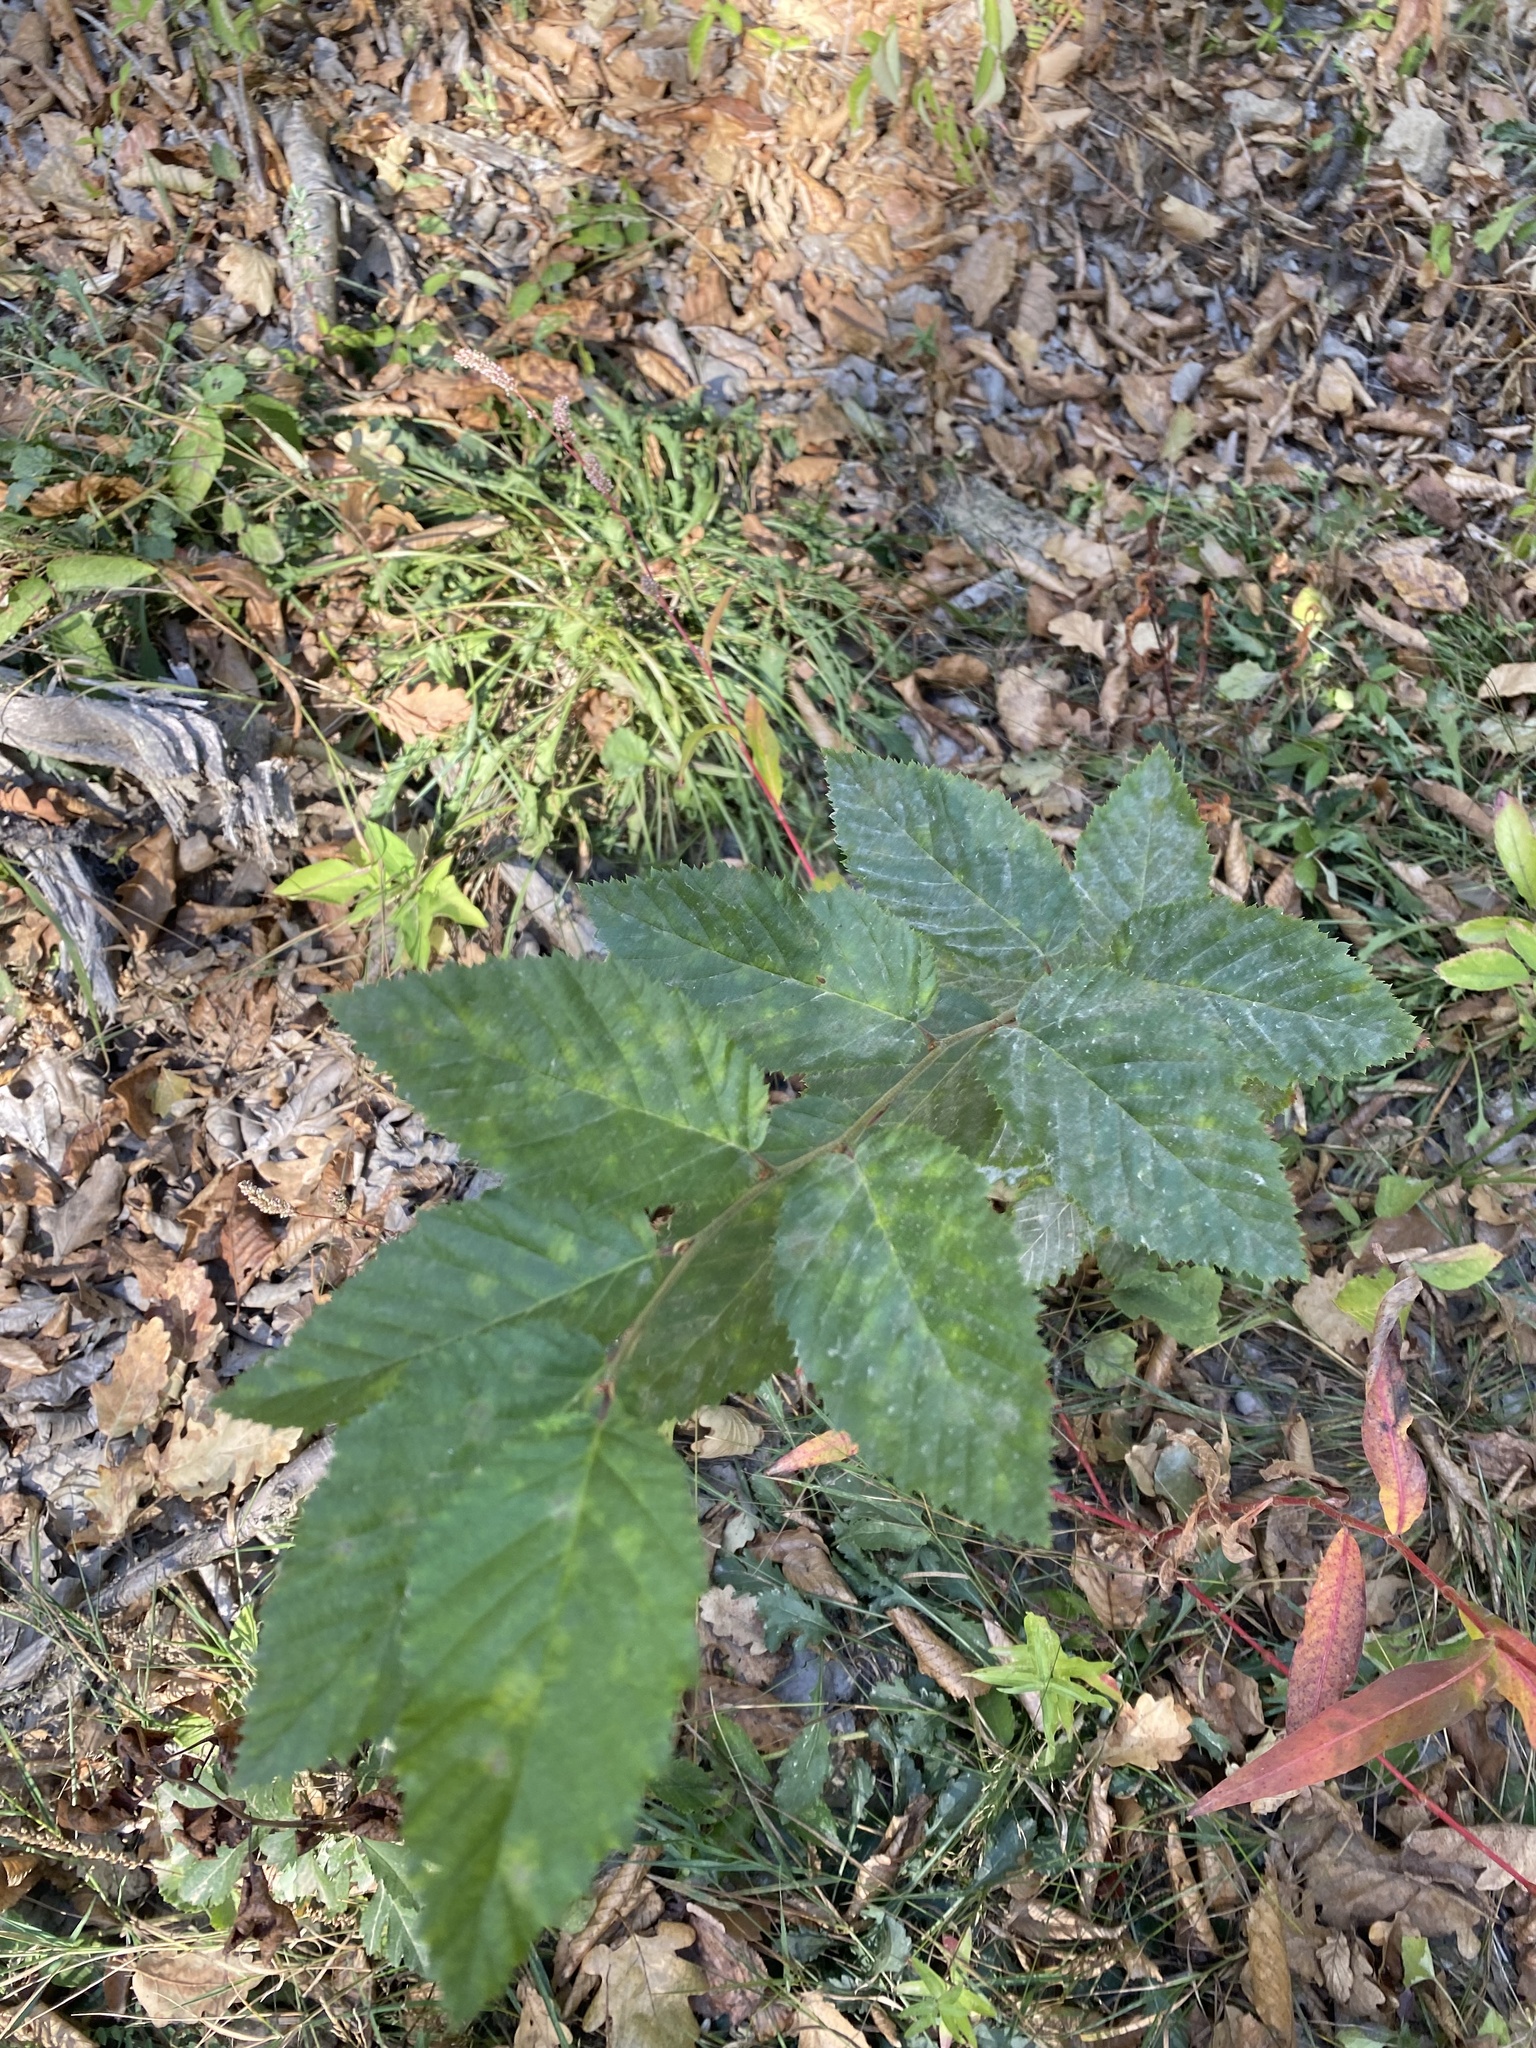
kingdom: Plantae
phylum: Tracheophyta
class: Magnoliopsida
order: Fagales
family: Betulaceae
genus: Carpinus
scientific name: Carpinus betulus
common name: Hornbeam
